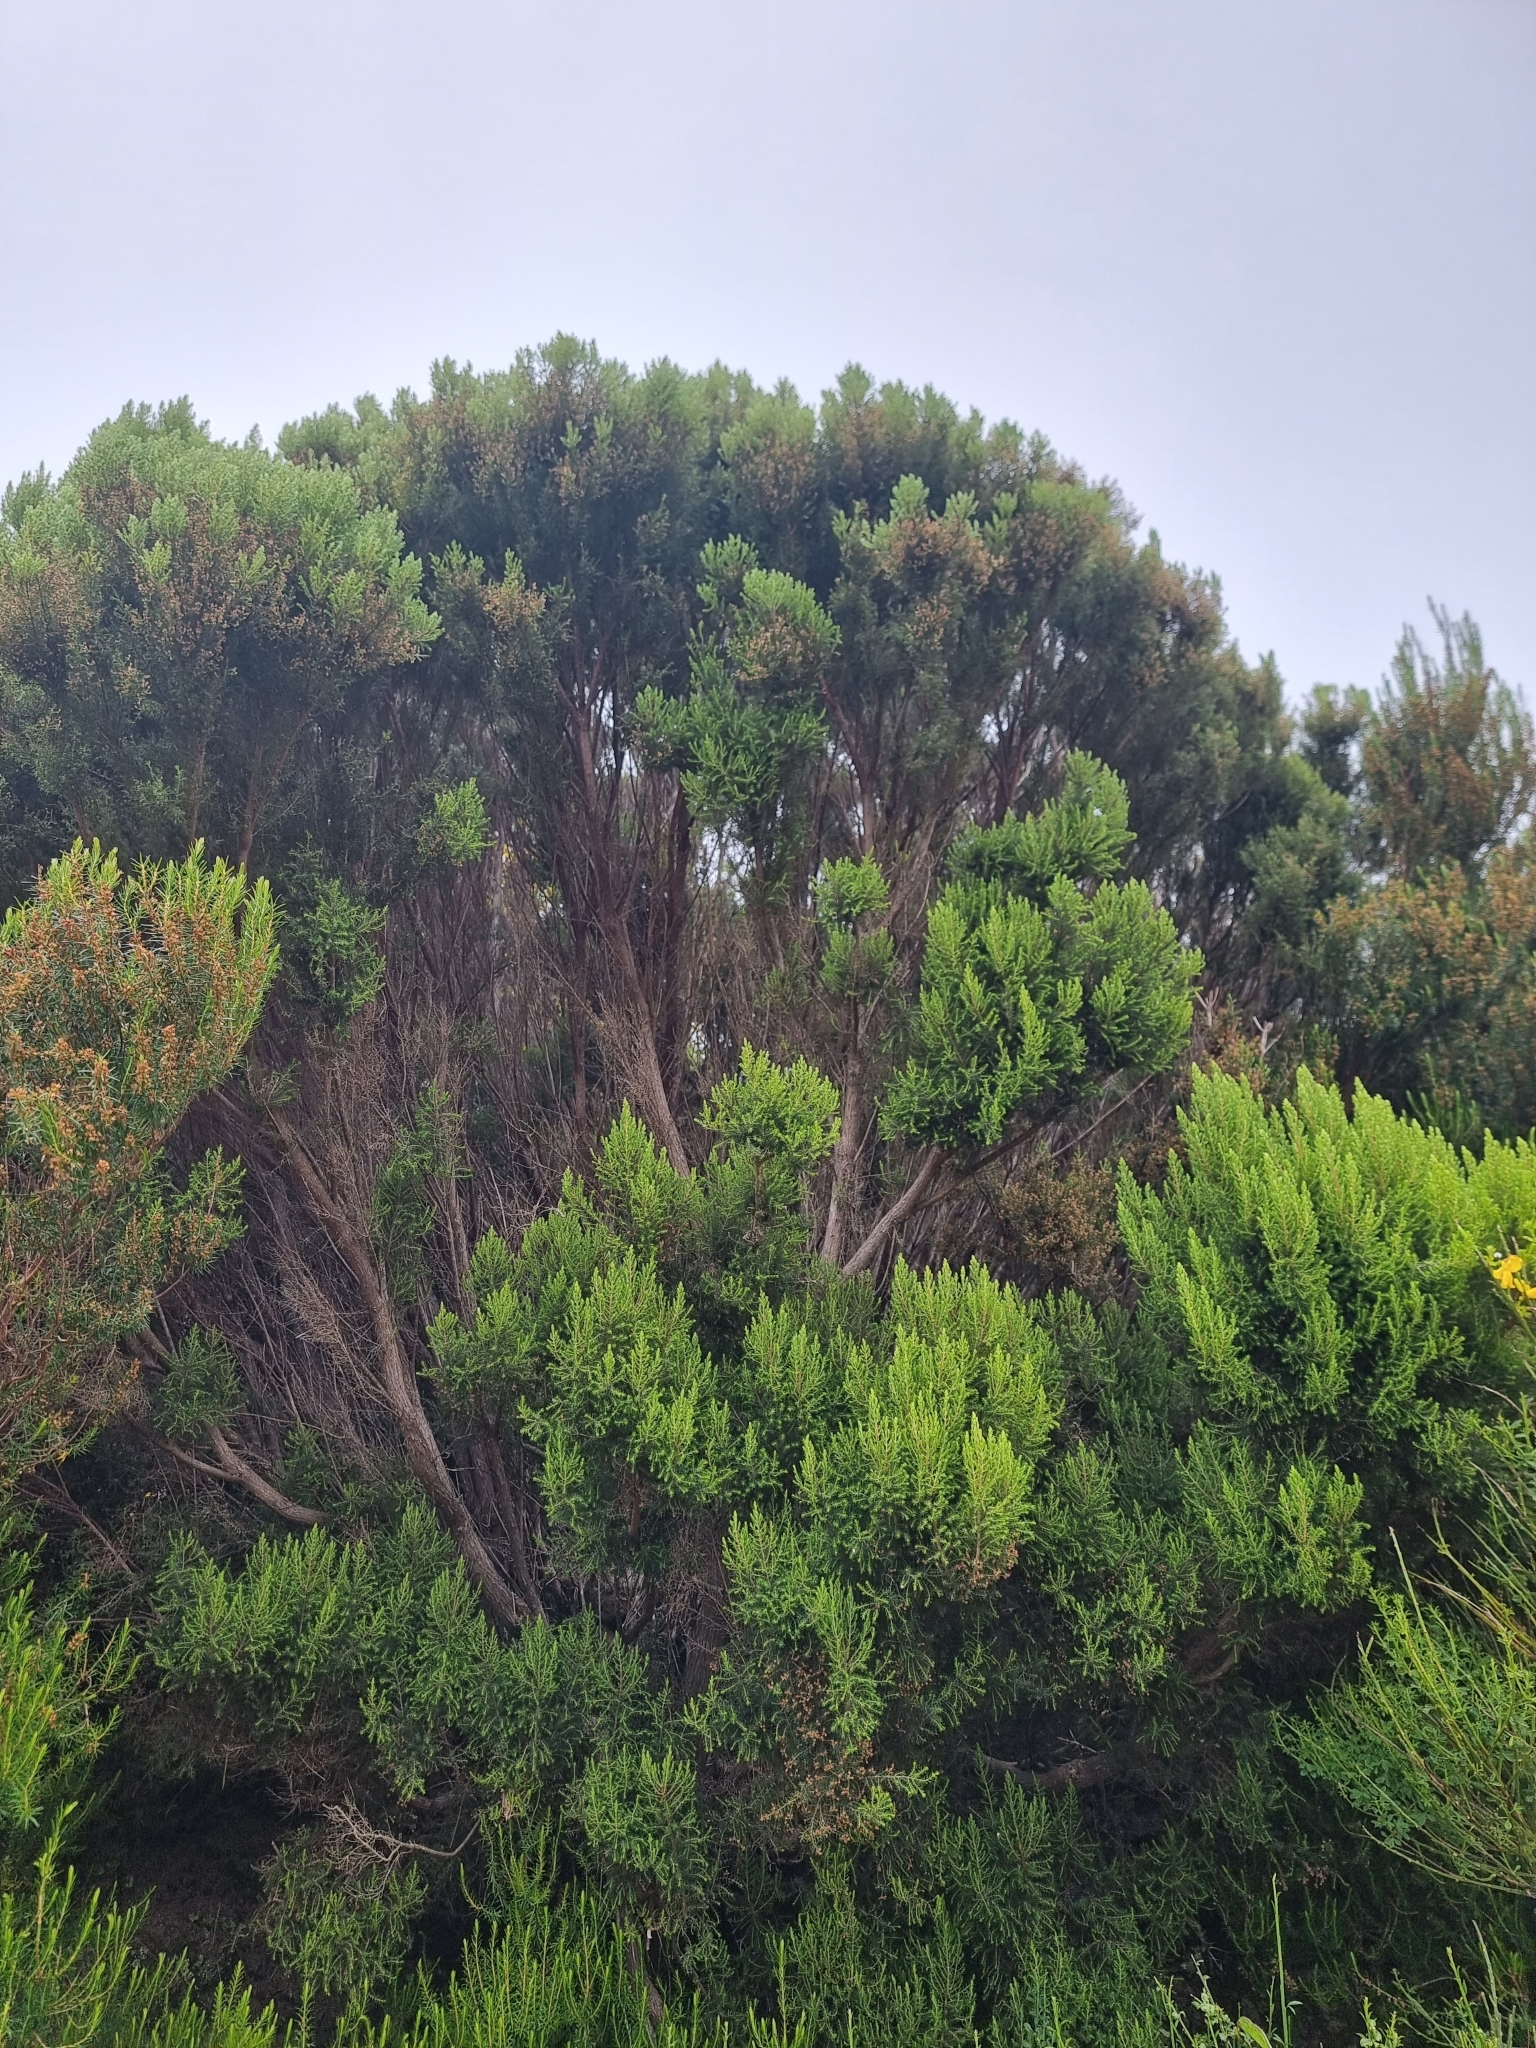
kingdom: Plantae
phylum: Tracheophyta
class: Magnoliopsida
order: Ericales
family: Ericaceae
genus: Erica
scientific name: Erica canariensis
